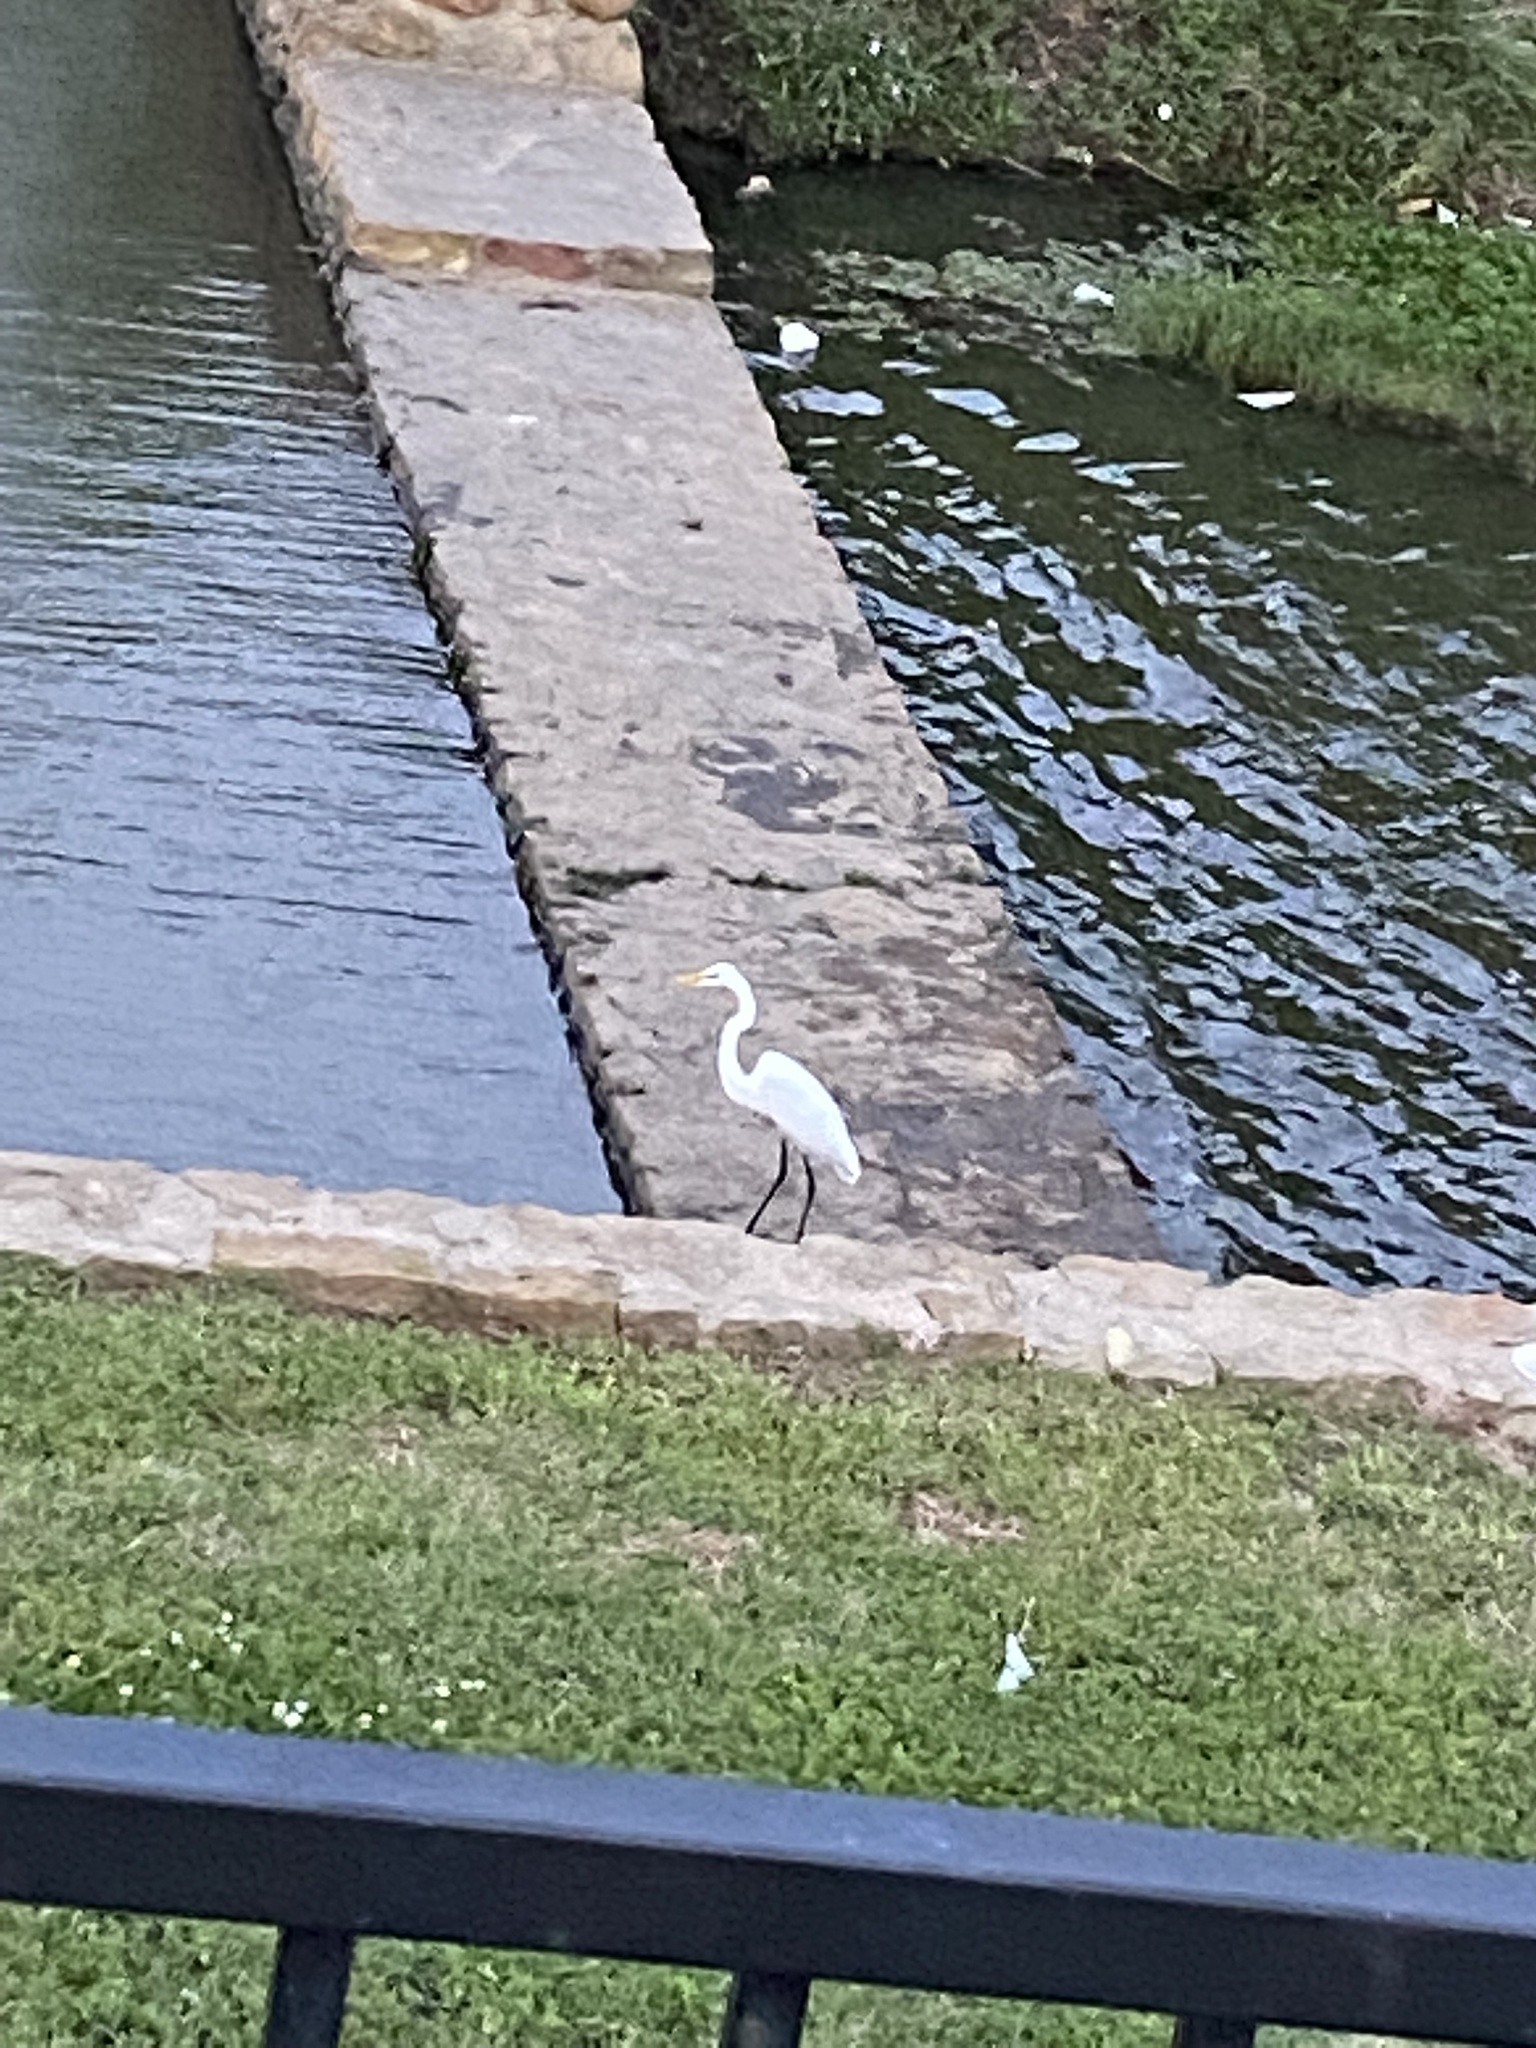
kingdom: Animalia
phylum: Chordata
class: Aves
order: Pelecaniformes
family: Ardeidae
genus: Ardea
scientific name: Ardea alba
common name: Great egret
